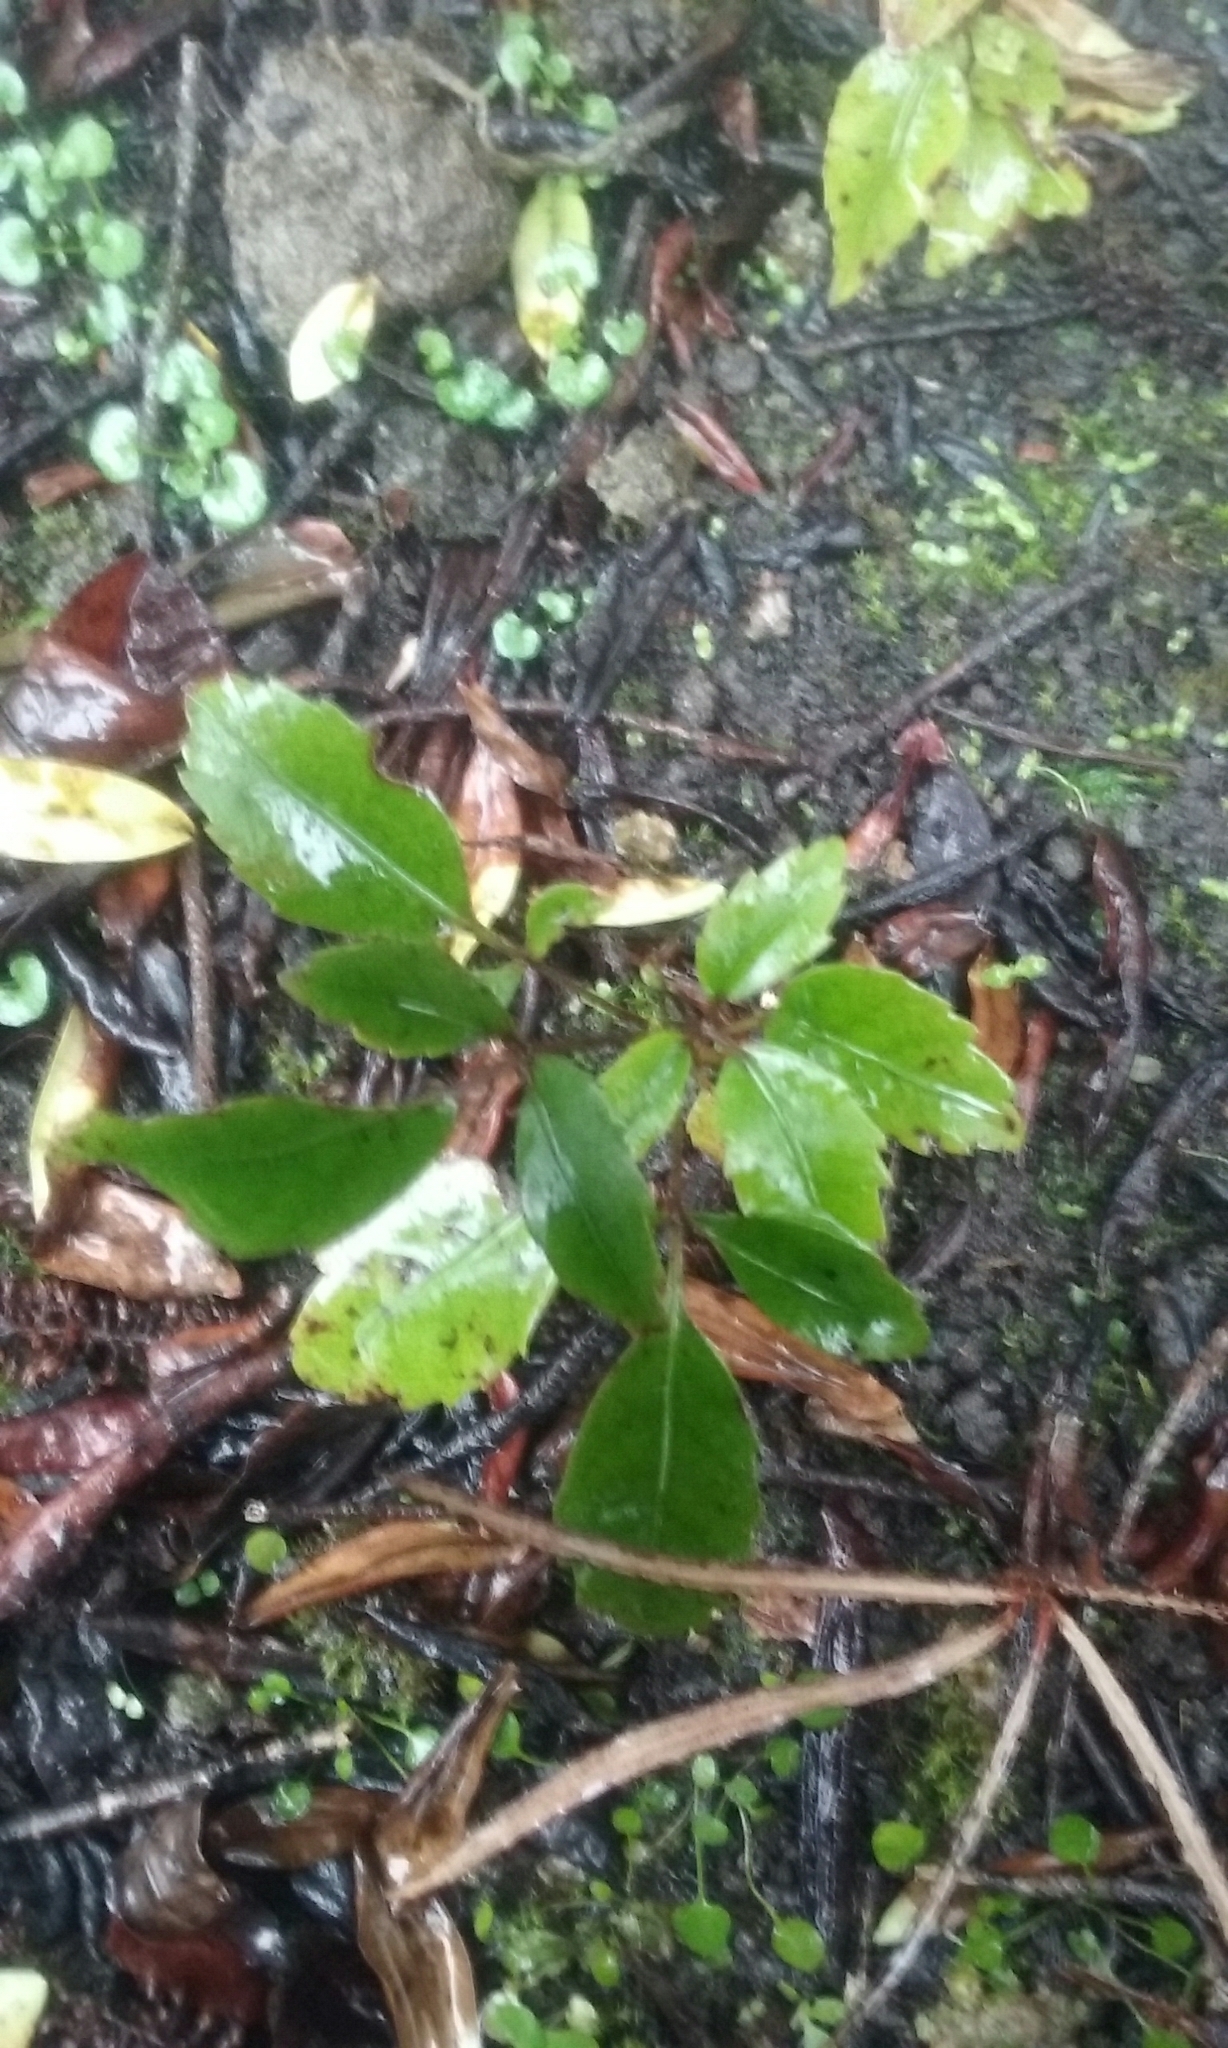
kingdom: Plantae
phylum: Tracheophyta
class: Magnoliopsida
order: Apiales
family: Araliaceae
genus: Neopanax
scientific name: Neopanax arboreus
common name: Five-fingers
